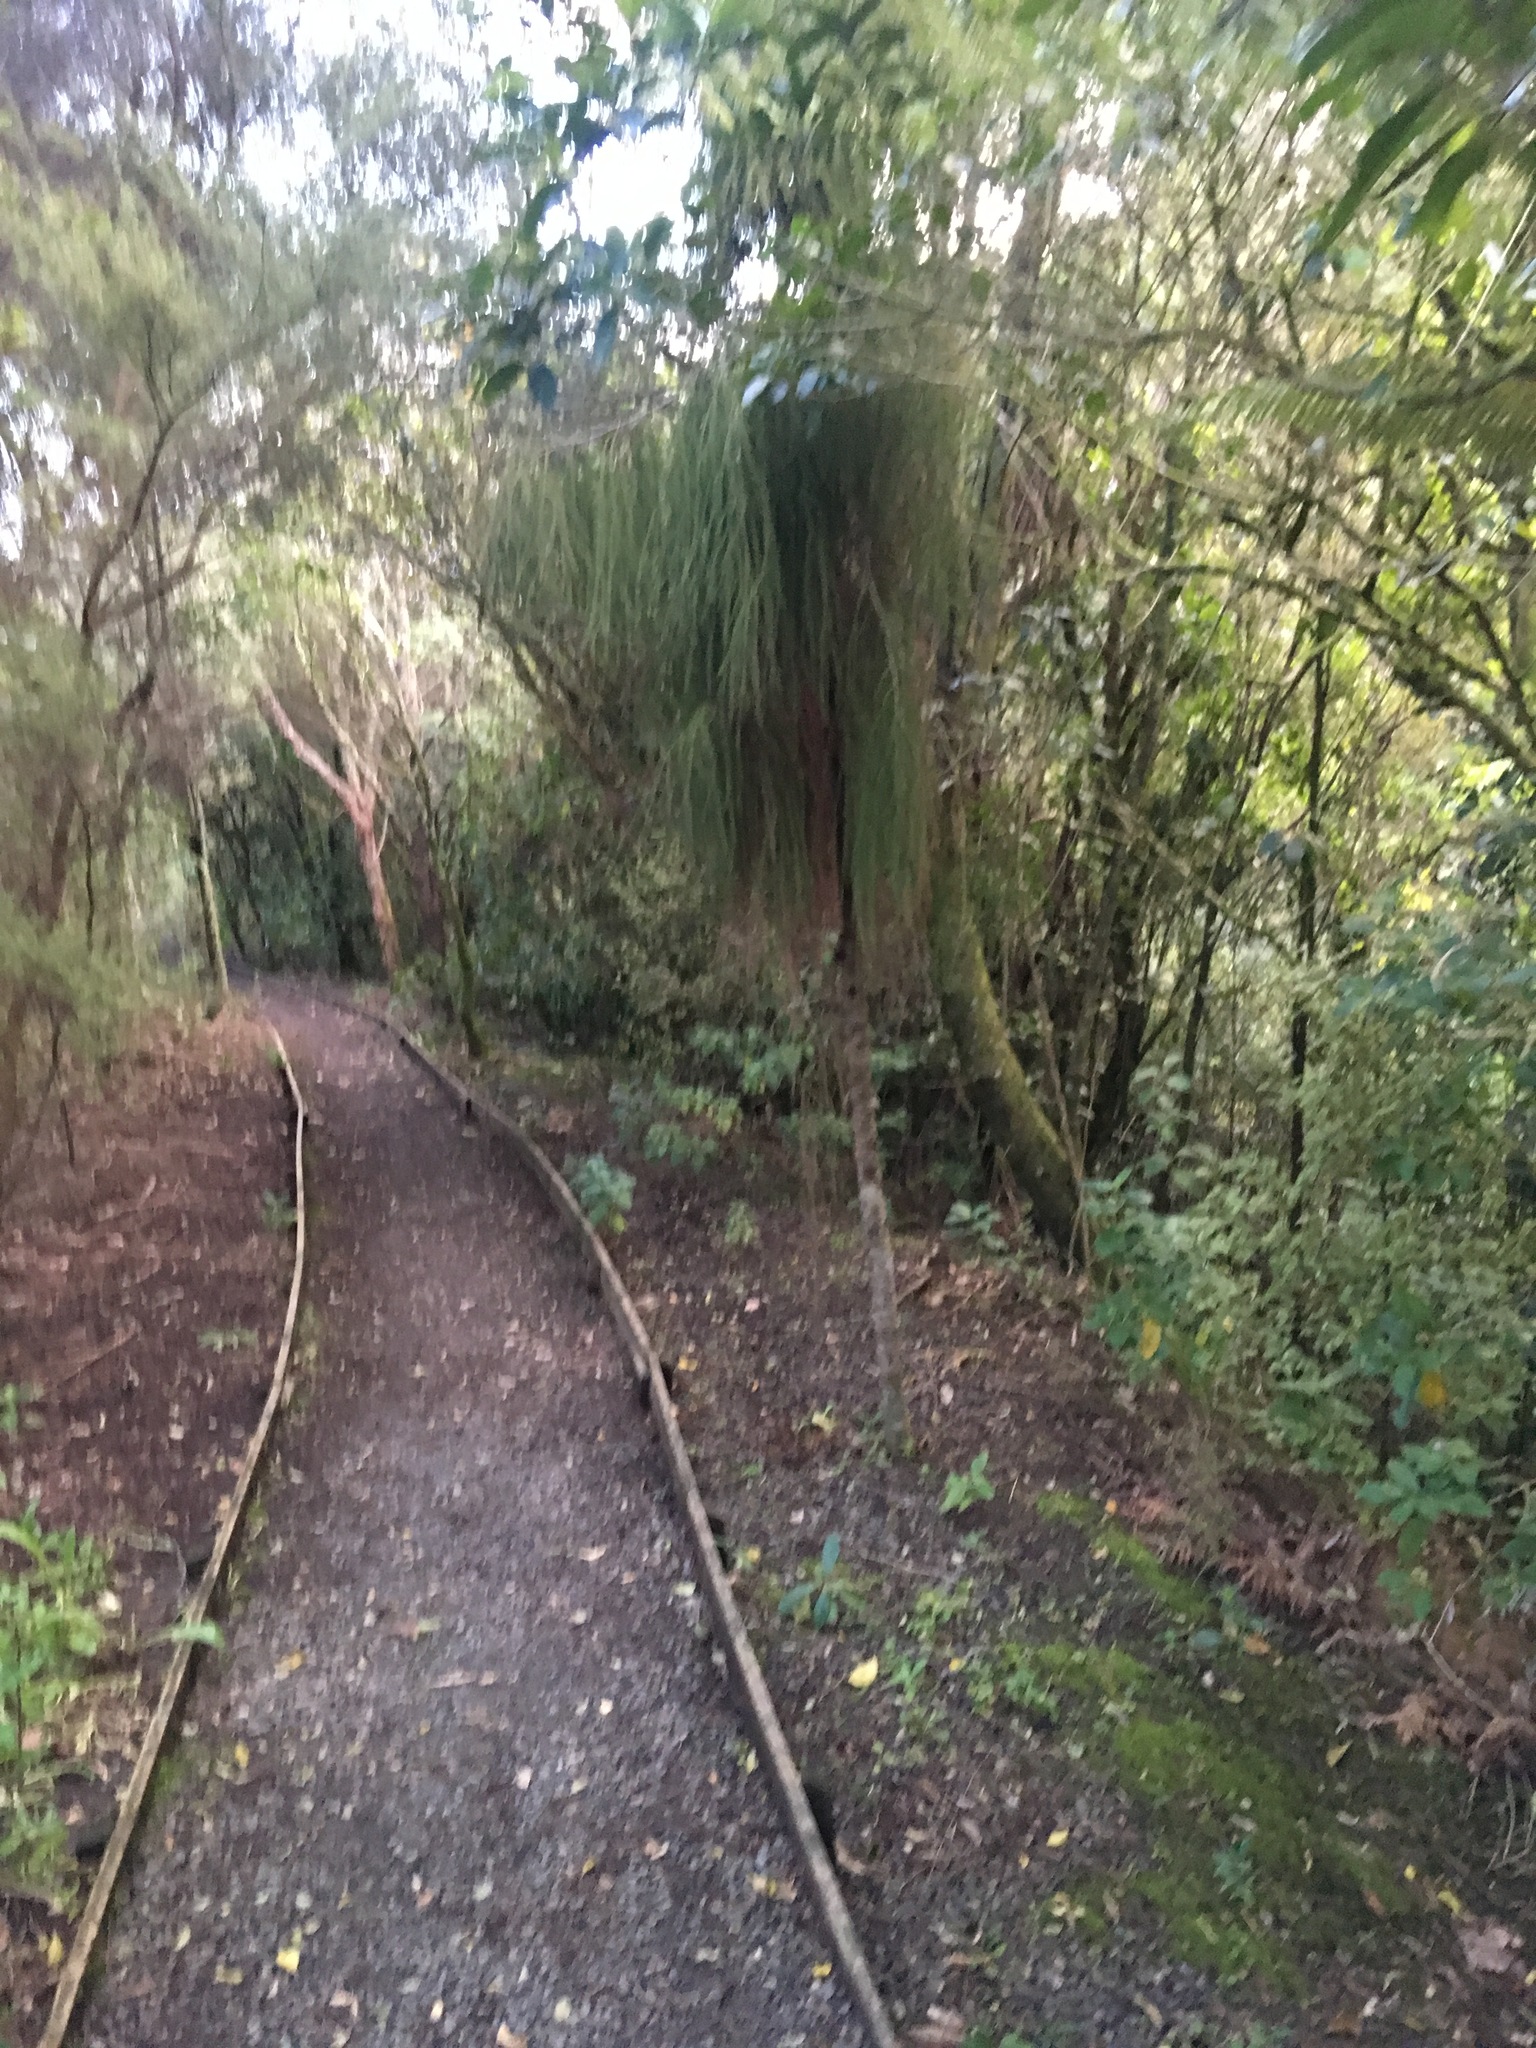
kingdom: Plantae
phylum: Tracheophyta
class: Pinopsida
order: Pinales
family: Podocarpaceae
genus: Dacrydium
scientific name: Dacrydium cupressinum
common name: Red pine
